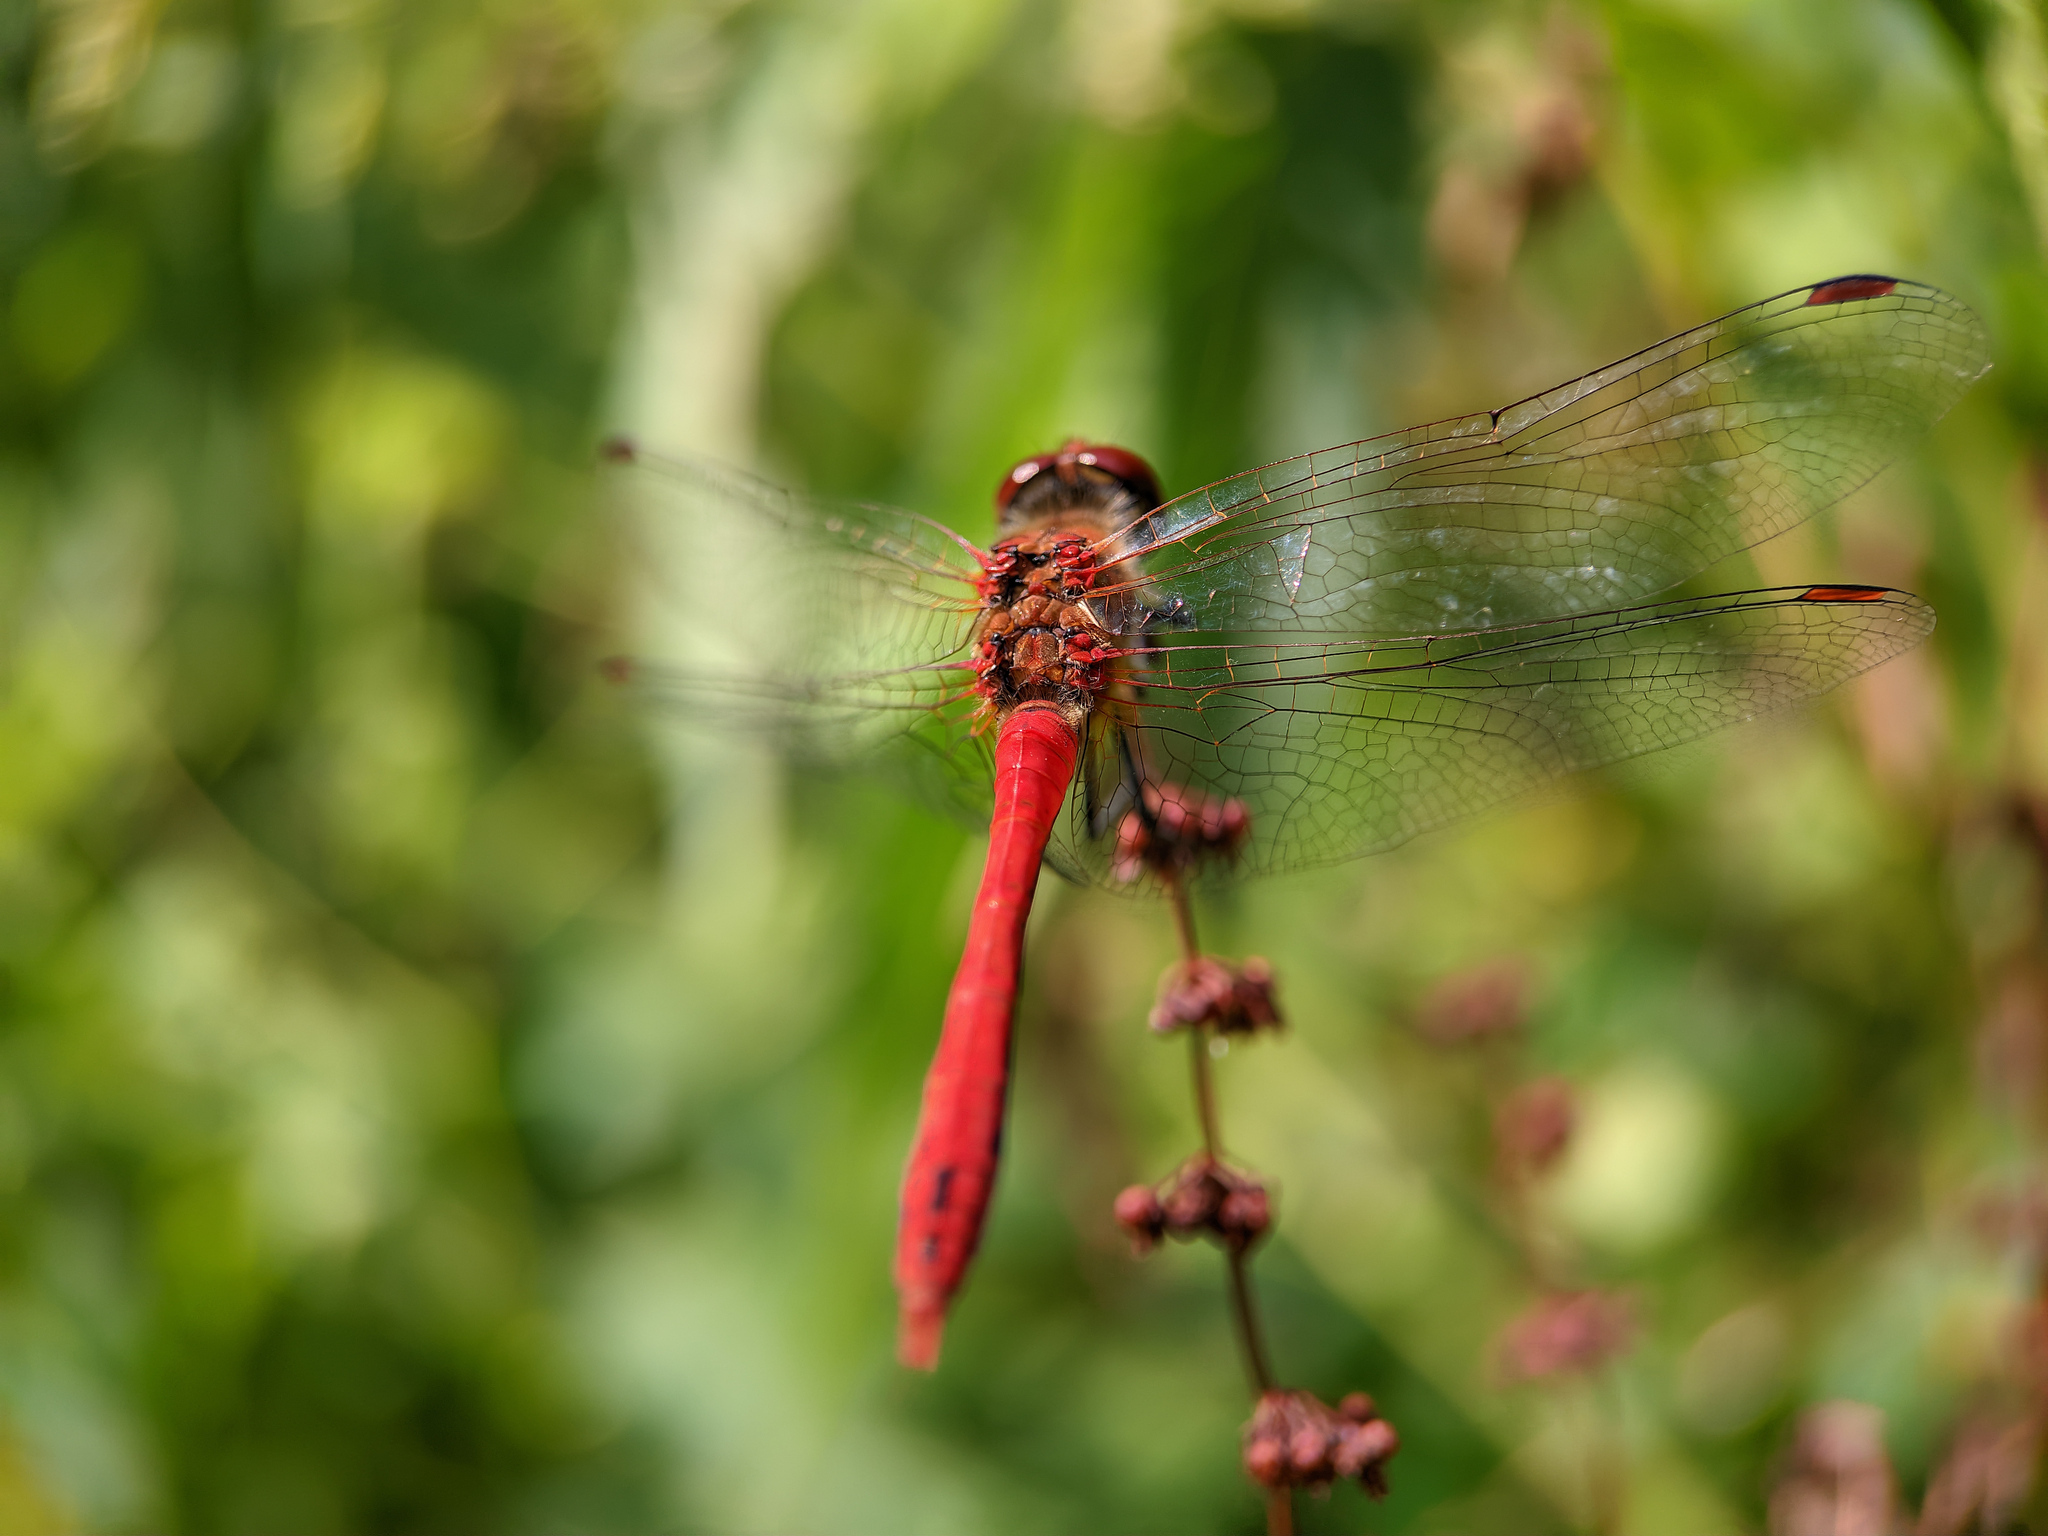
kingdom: Animalia
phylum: Arthropoda
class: Insecta
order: Odonata
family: Libellulidae
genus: Sympetrum
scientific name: Sympetrum sanguineum
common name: Ruddy darter
